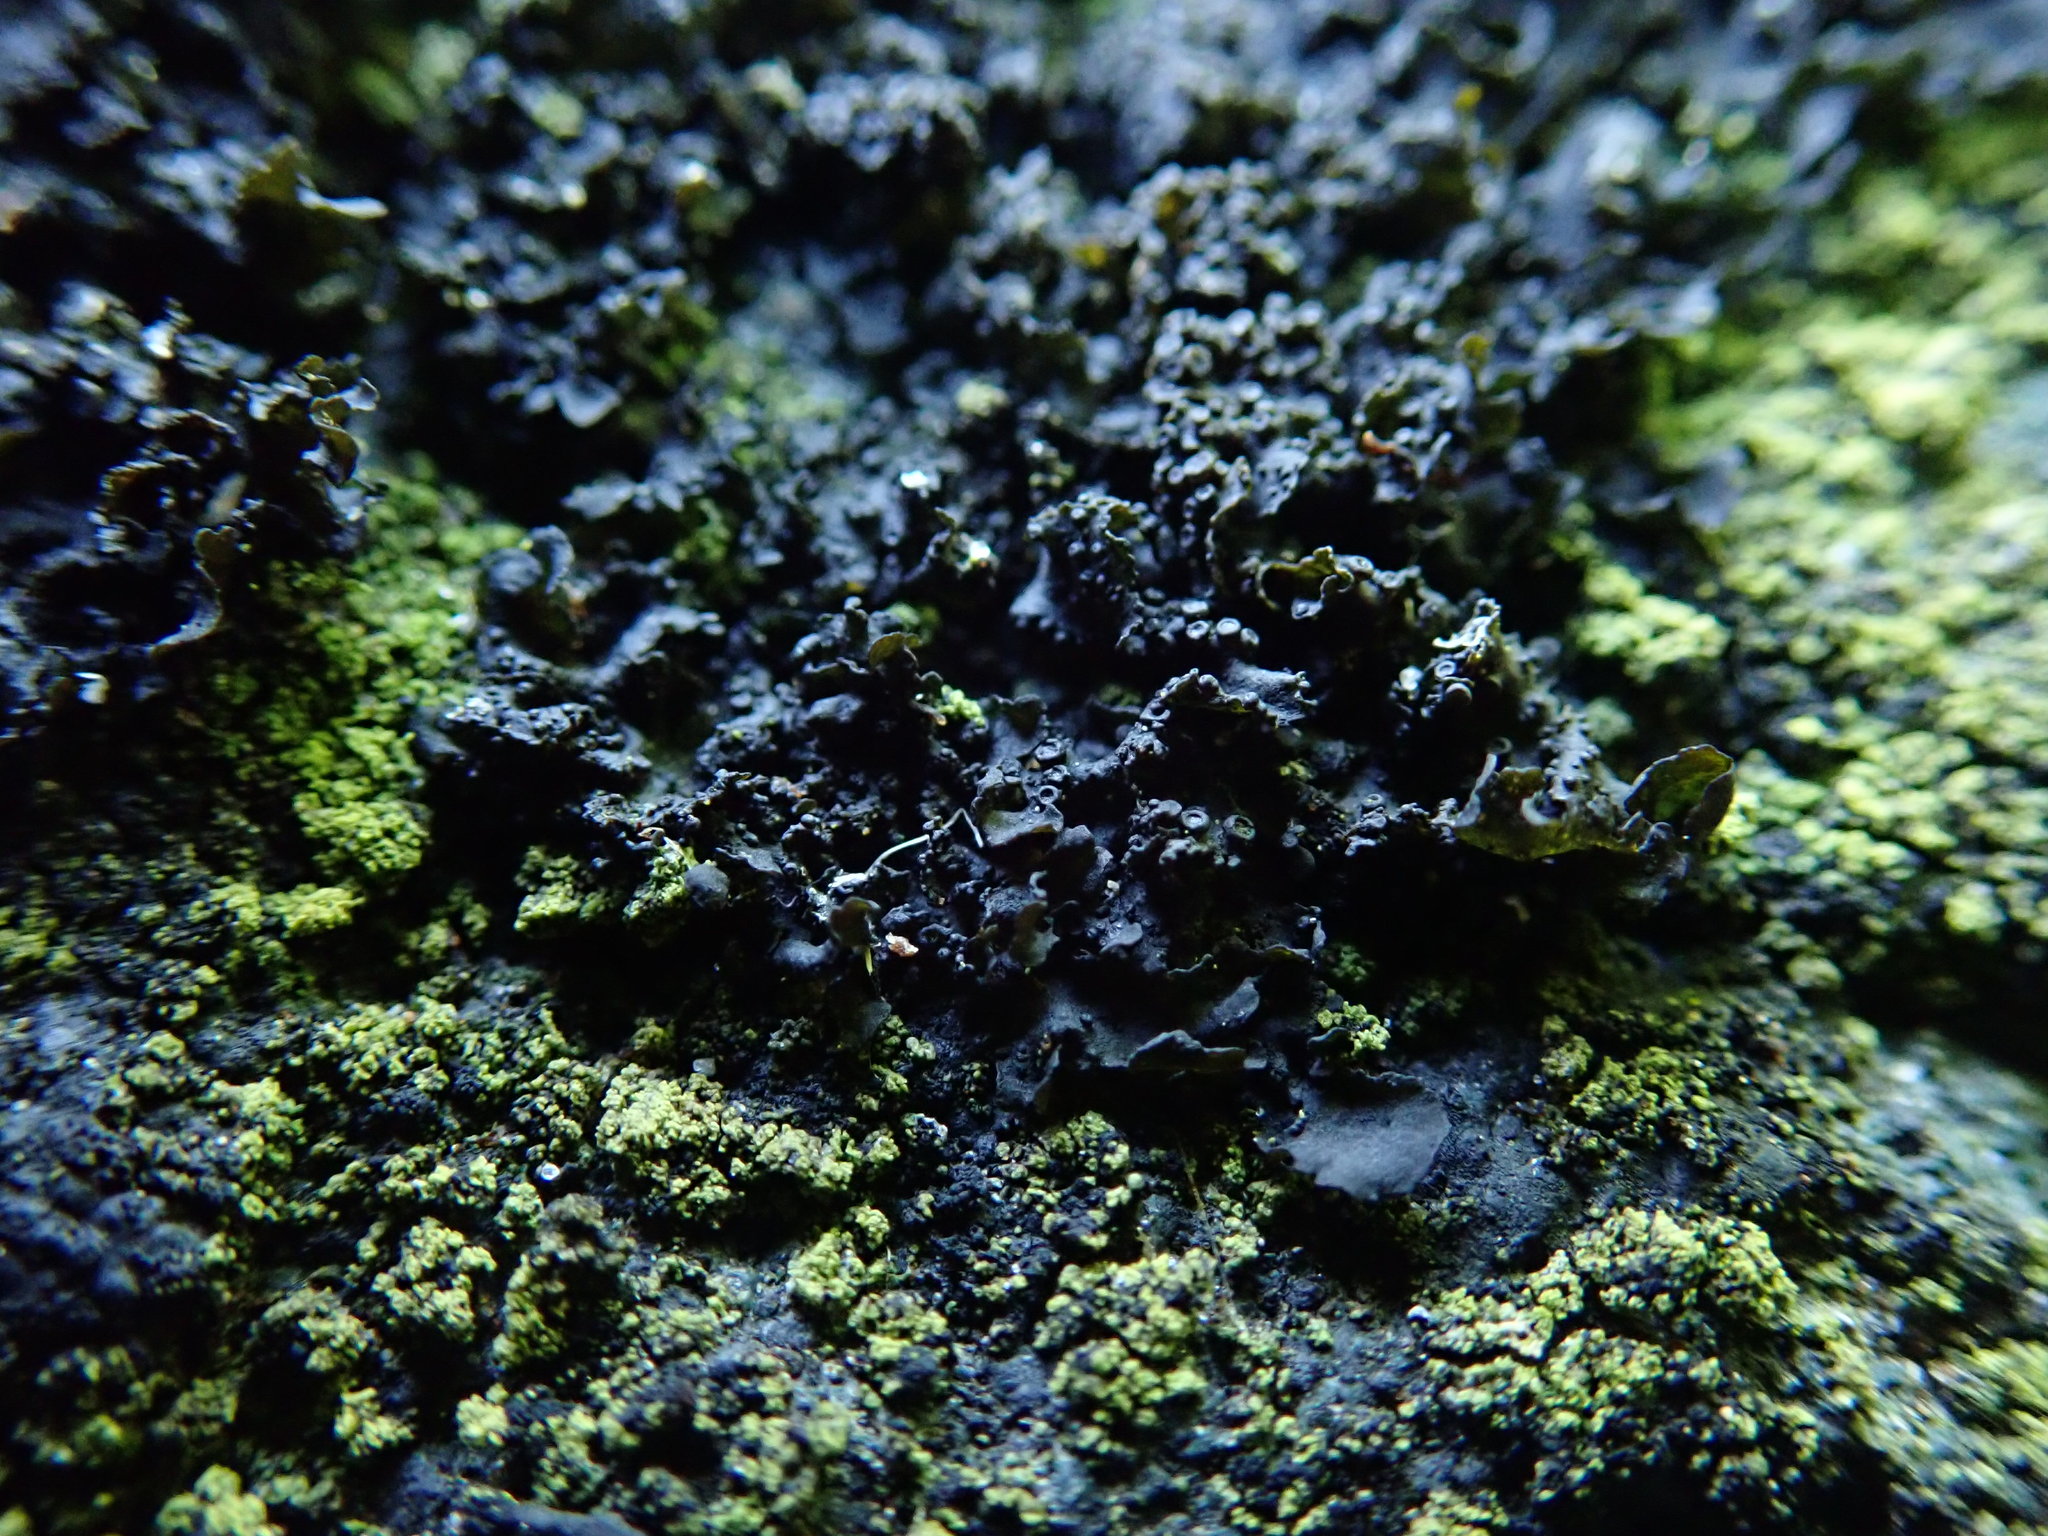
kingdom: Fungi
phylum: Ascomycota
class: Lecanoromycetes
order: Peltigerales
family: Collemataceae
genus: Blennothallia
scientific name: Blennothallia fecunda
